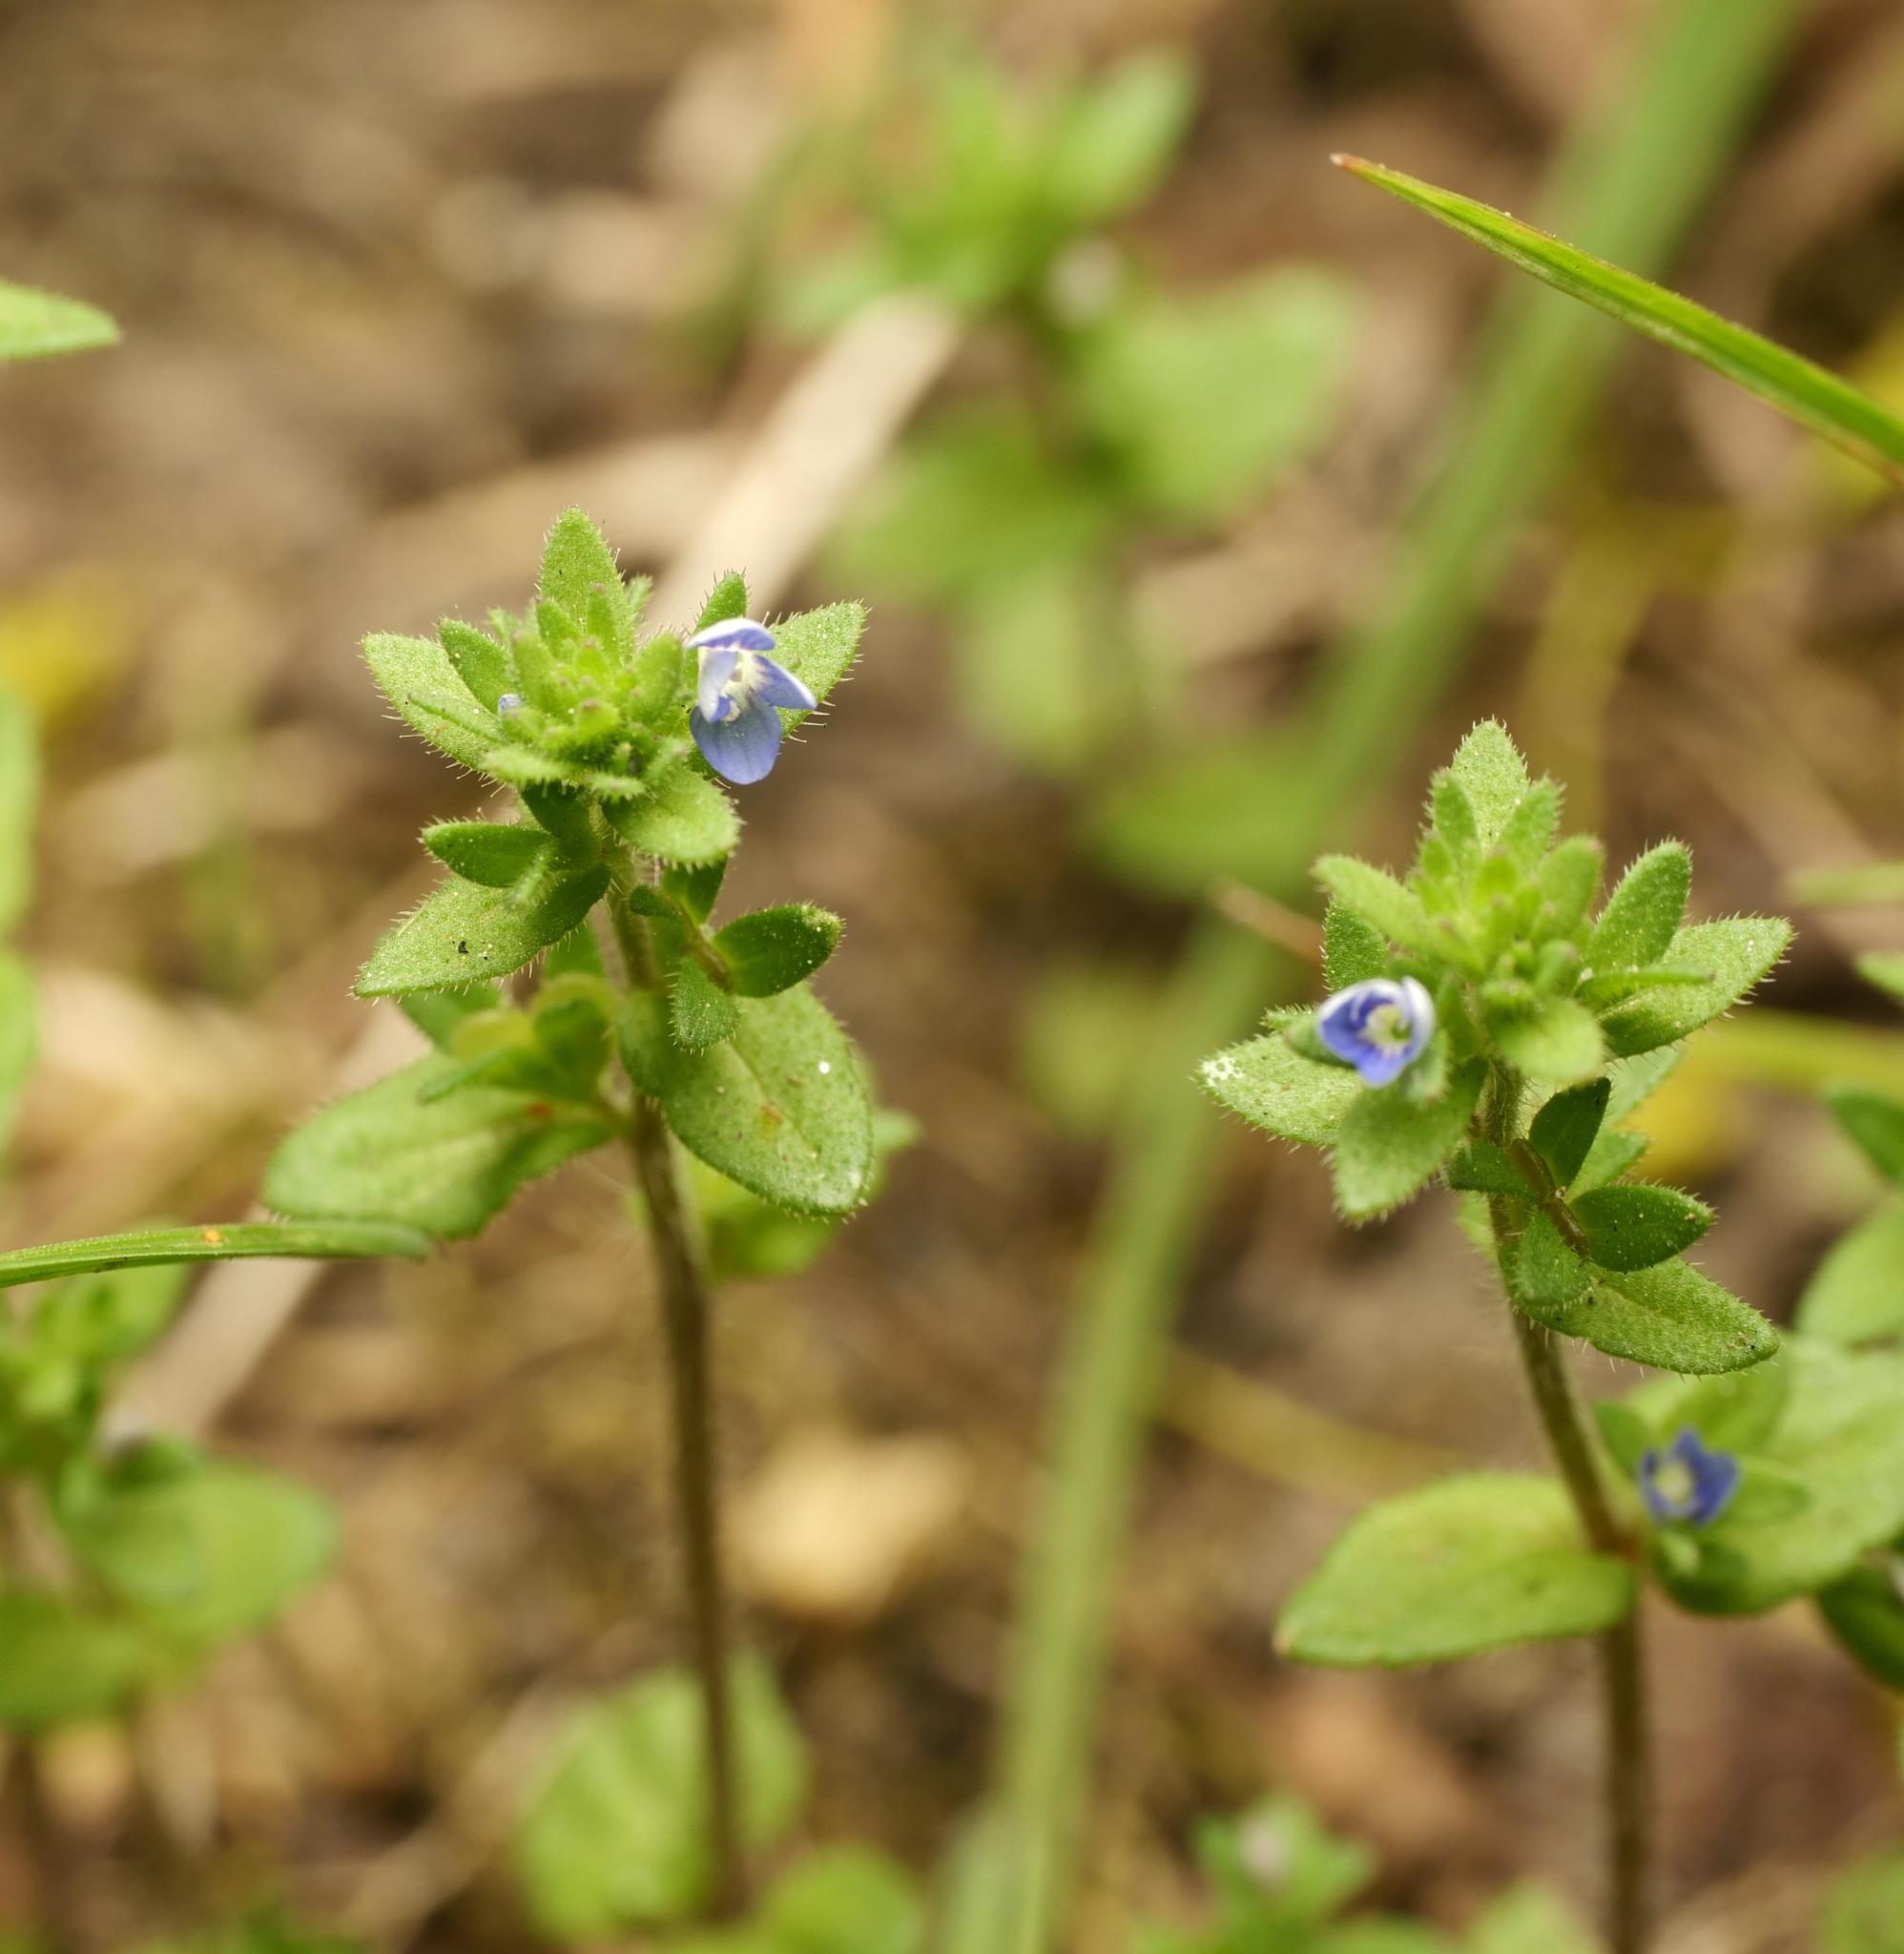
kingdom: Plantae
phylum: Tracheophyta
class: Magnoliopsida
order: Lamiales
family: Plantaginaceae
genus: Veronica
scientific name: Veronica arvensis
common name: Corn speedwell
